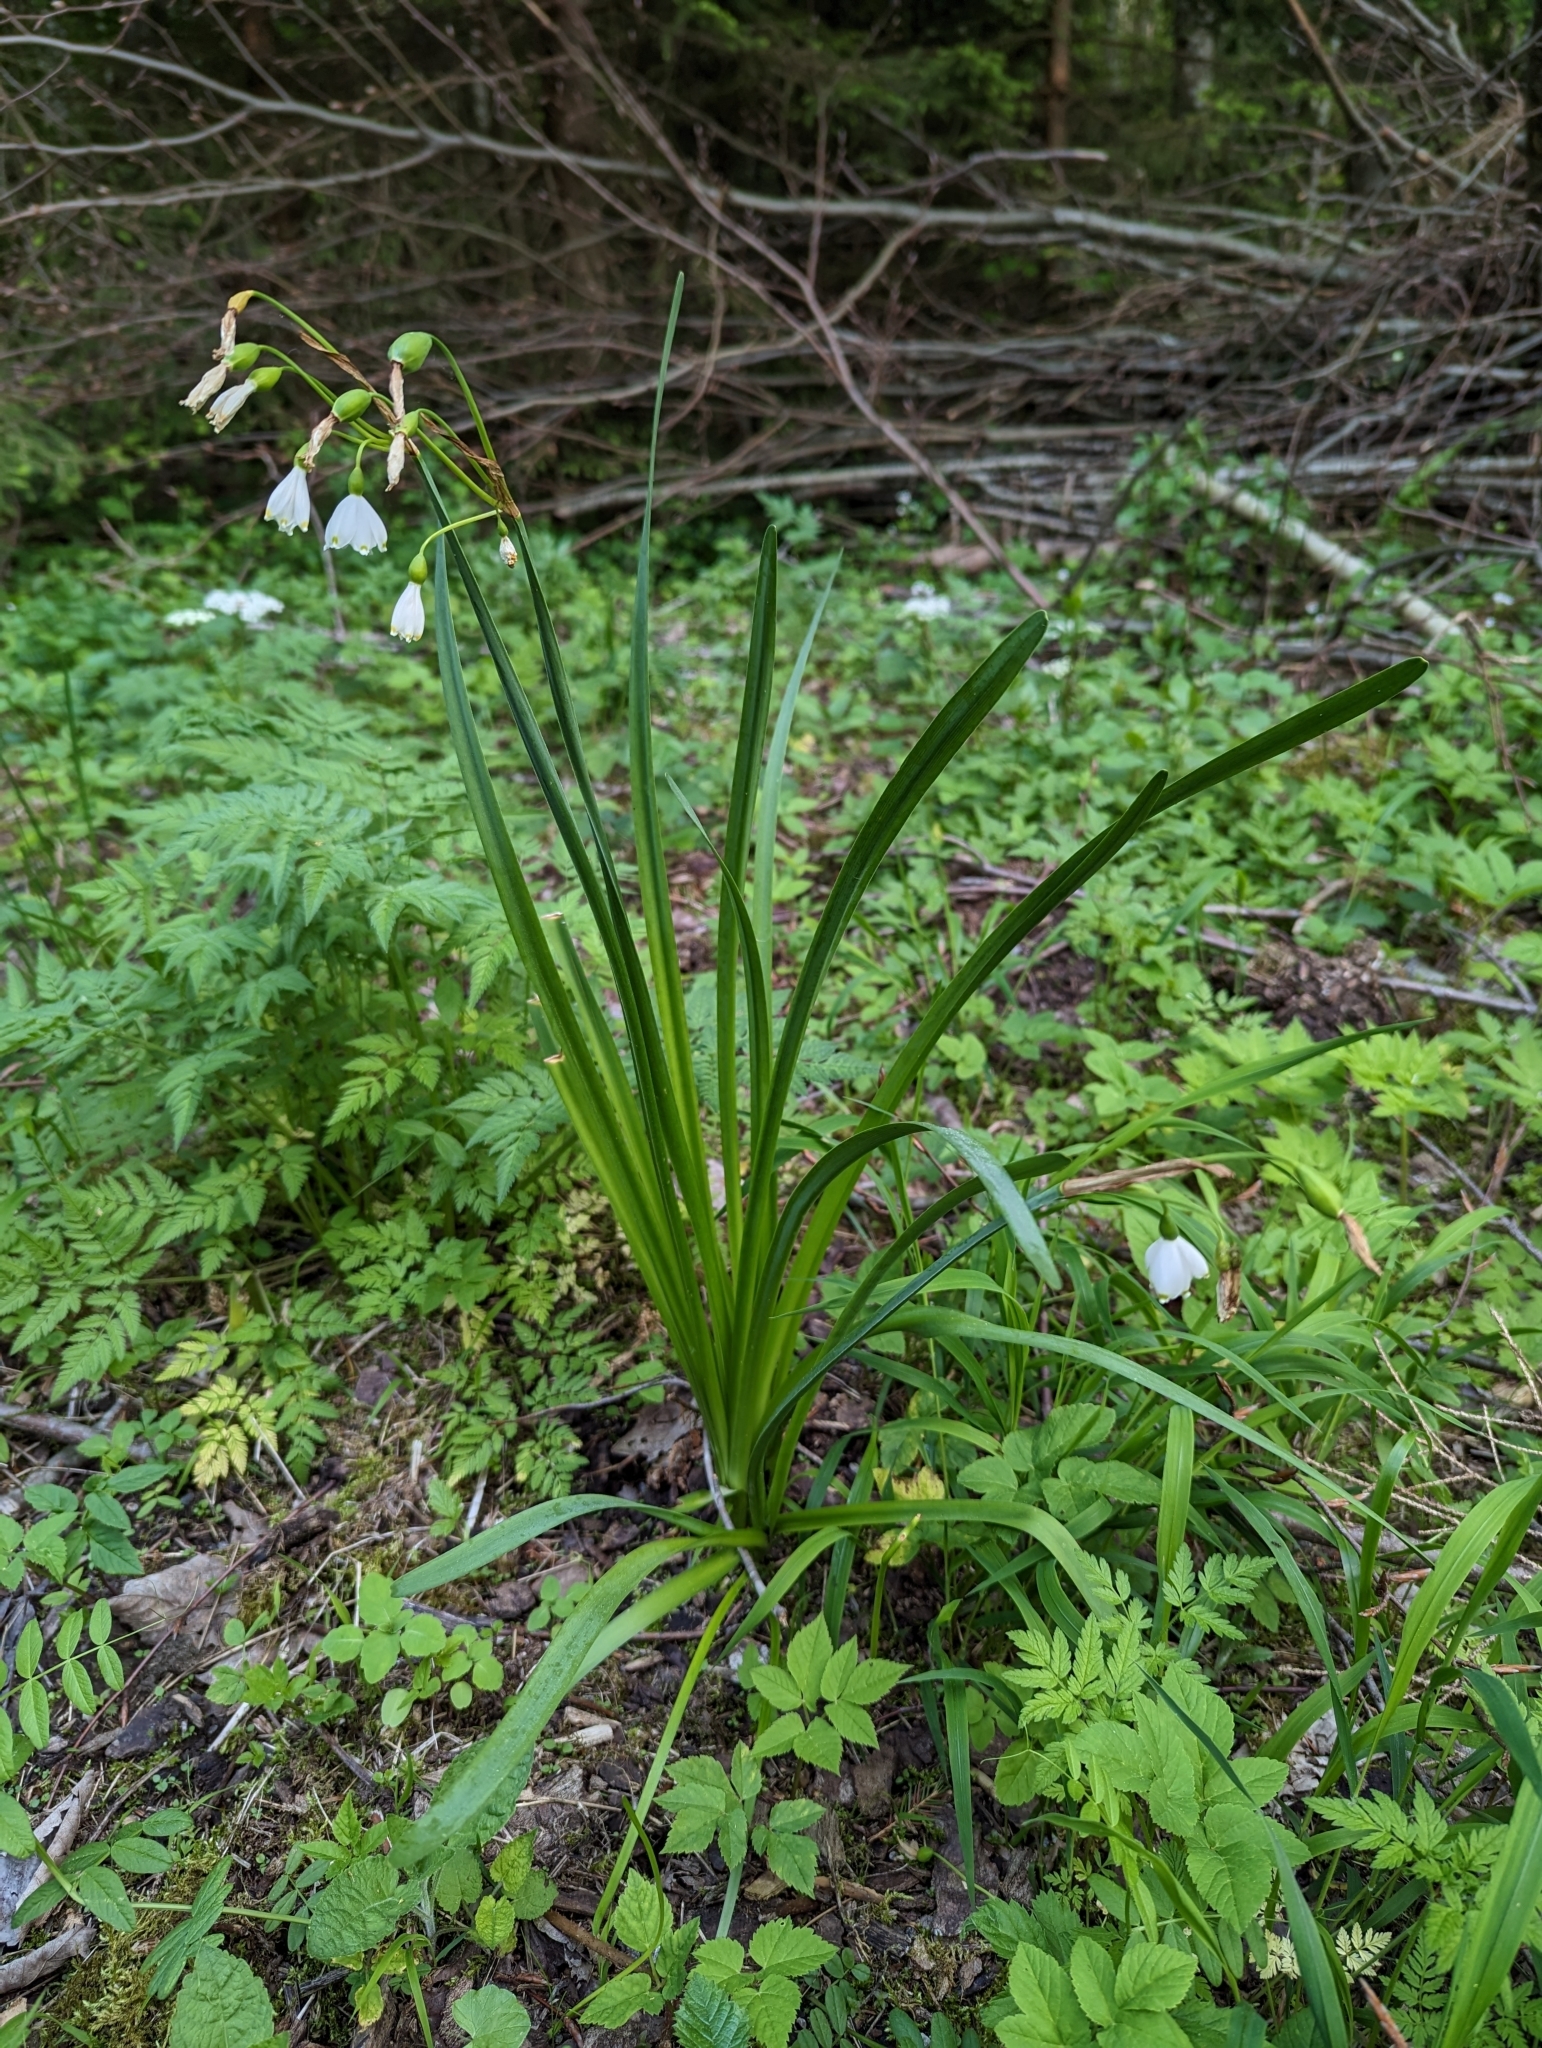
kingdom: Plantae
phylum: Tracheophyta
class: Liliopsida
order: Asparagales
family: Amaryllidaceae
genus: Leucojum
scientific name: Leucojum aestivum
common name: Summer snowflake
